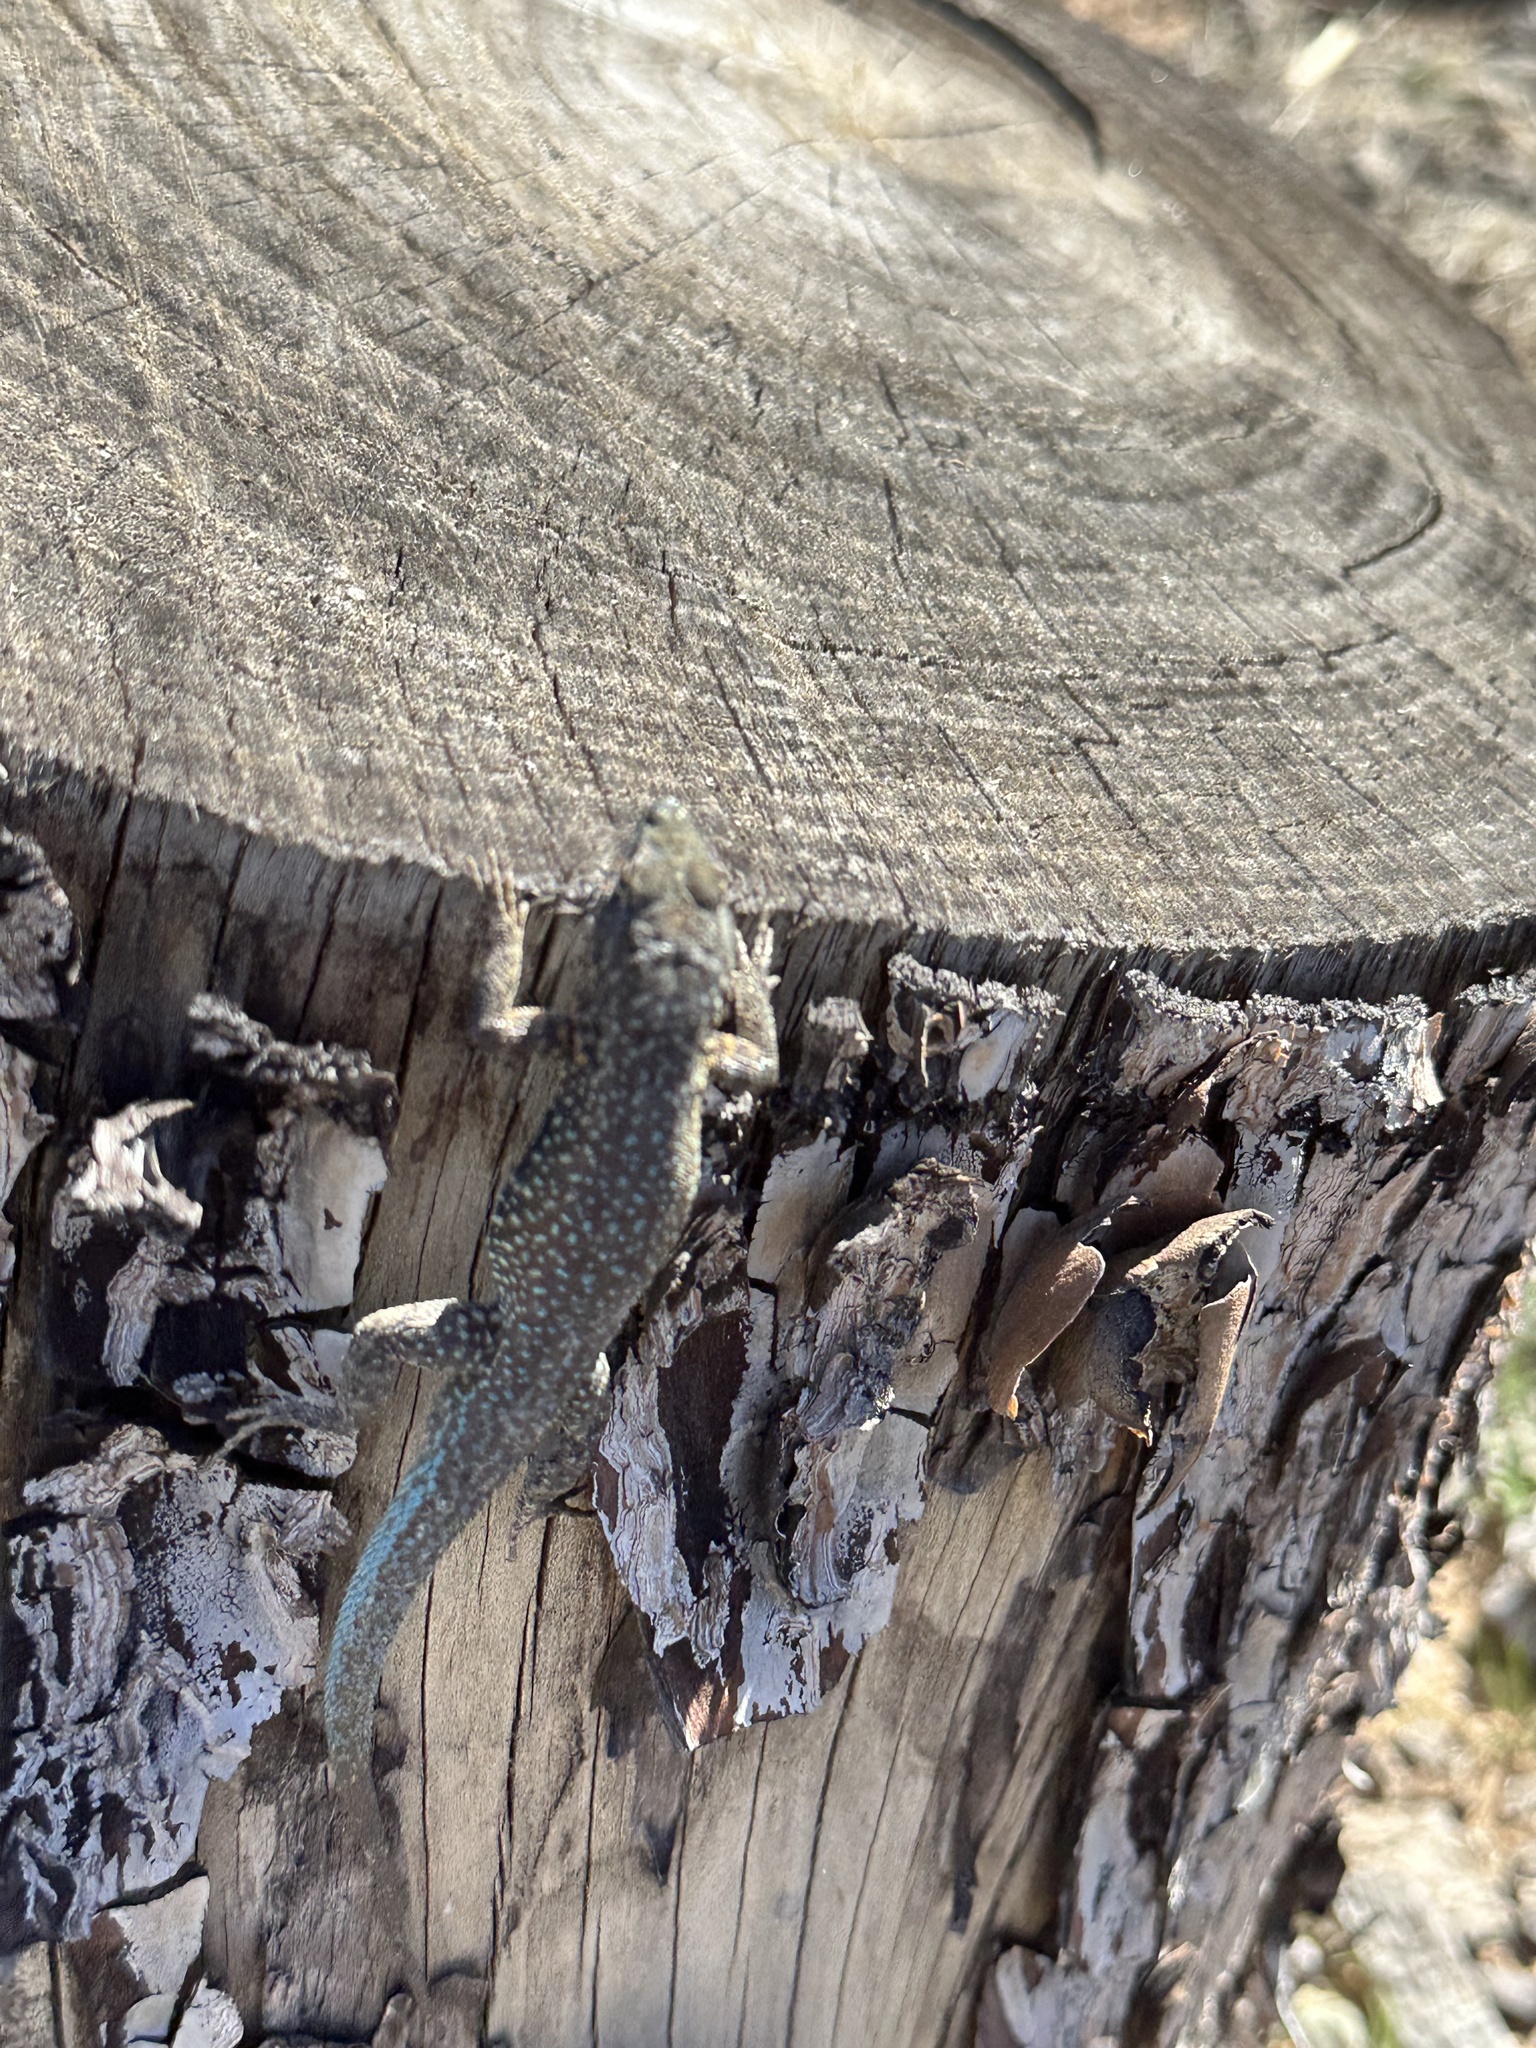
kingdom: Animalia
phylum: Chordata
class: Squamata
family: Phrynosomatidae
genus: Uta
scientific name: Uta stansburiana
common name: Side-blotched lizard
